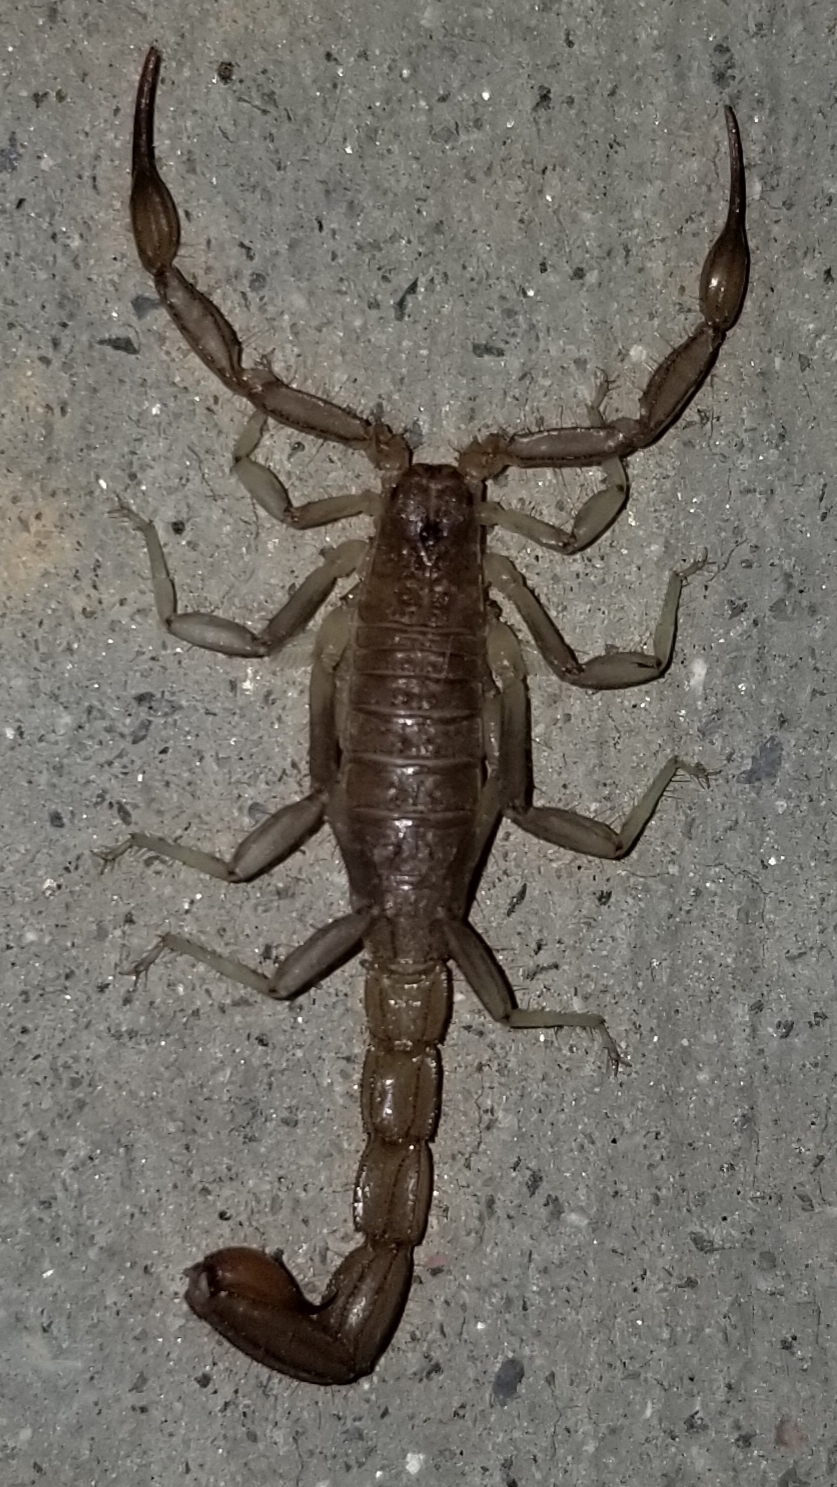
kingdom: Animalia
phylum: Arthropoda
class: Arachnida
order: Scorpiones
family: Vaejovidae
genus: Paravaejovis
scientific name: Paravaejovis puritanus
